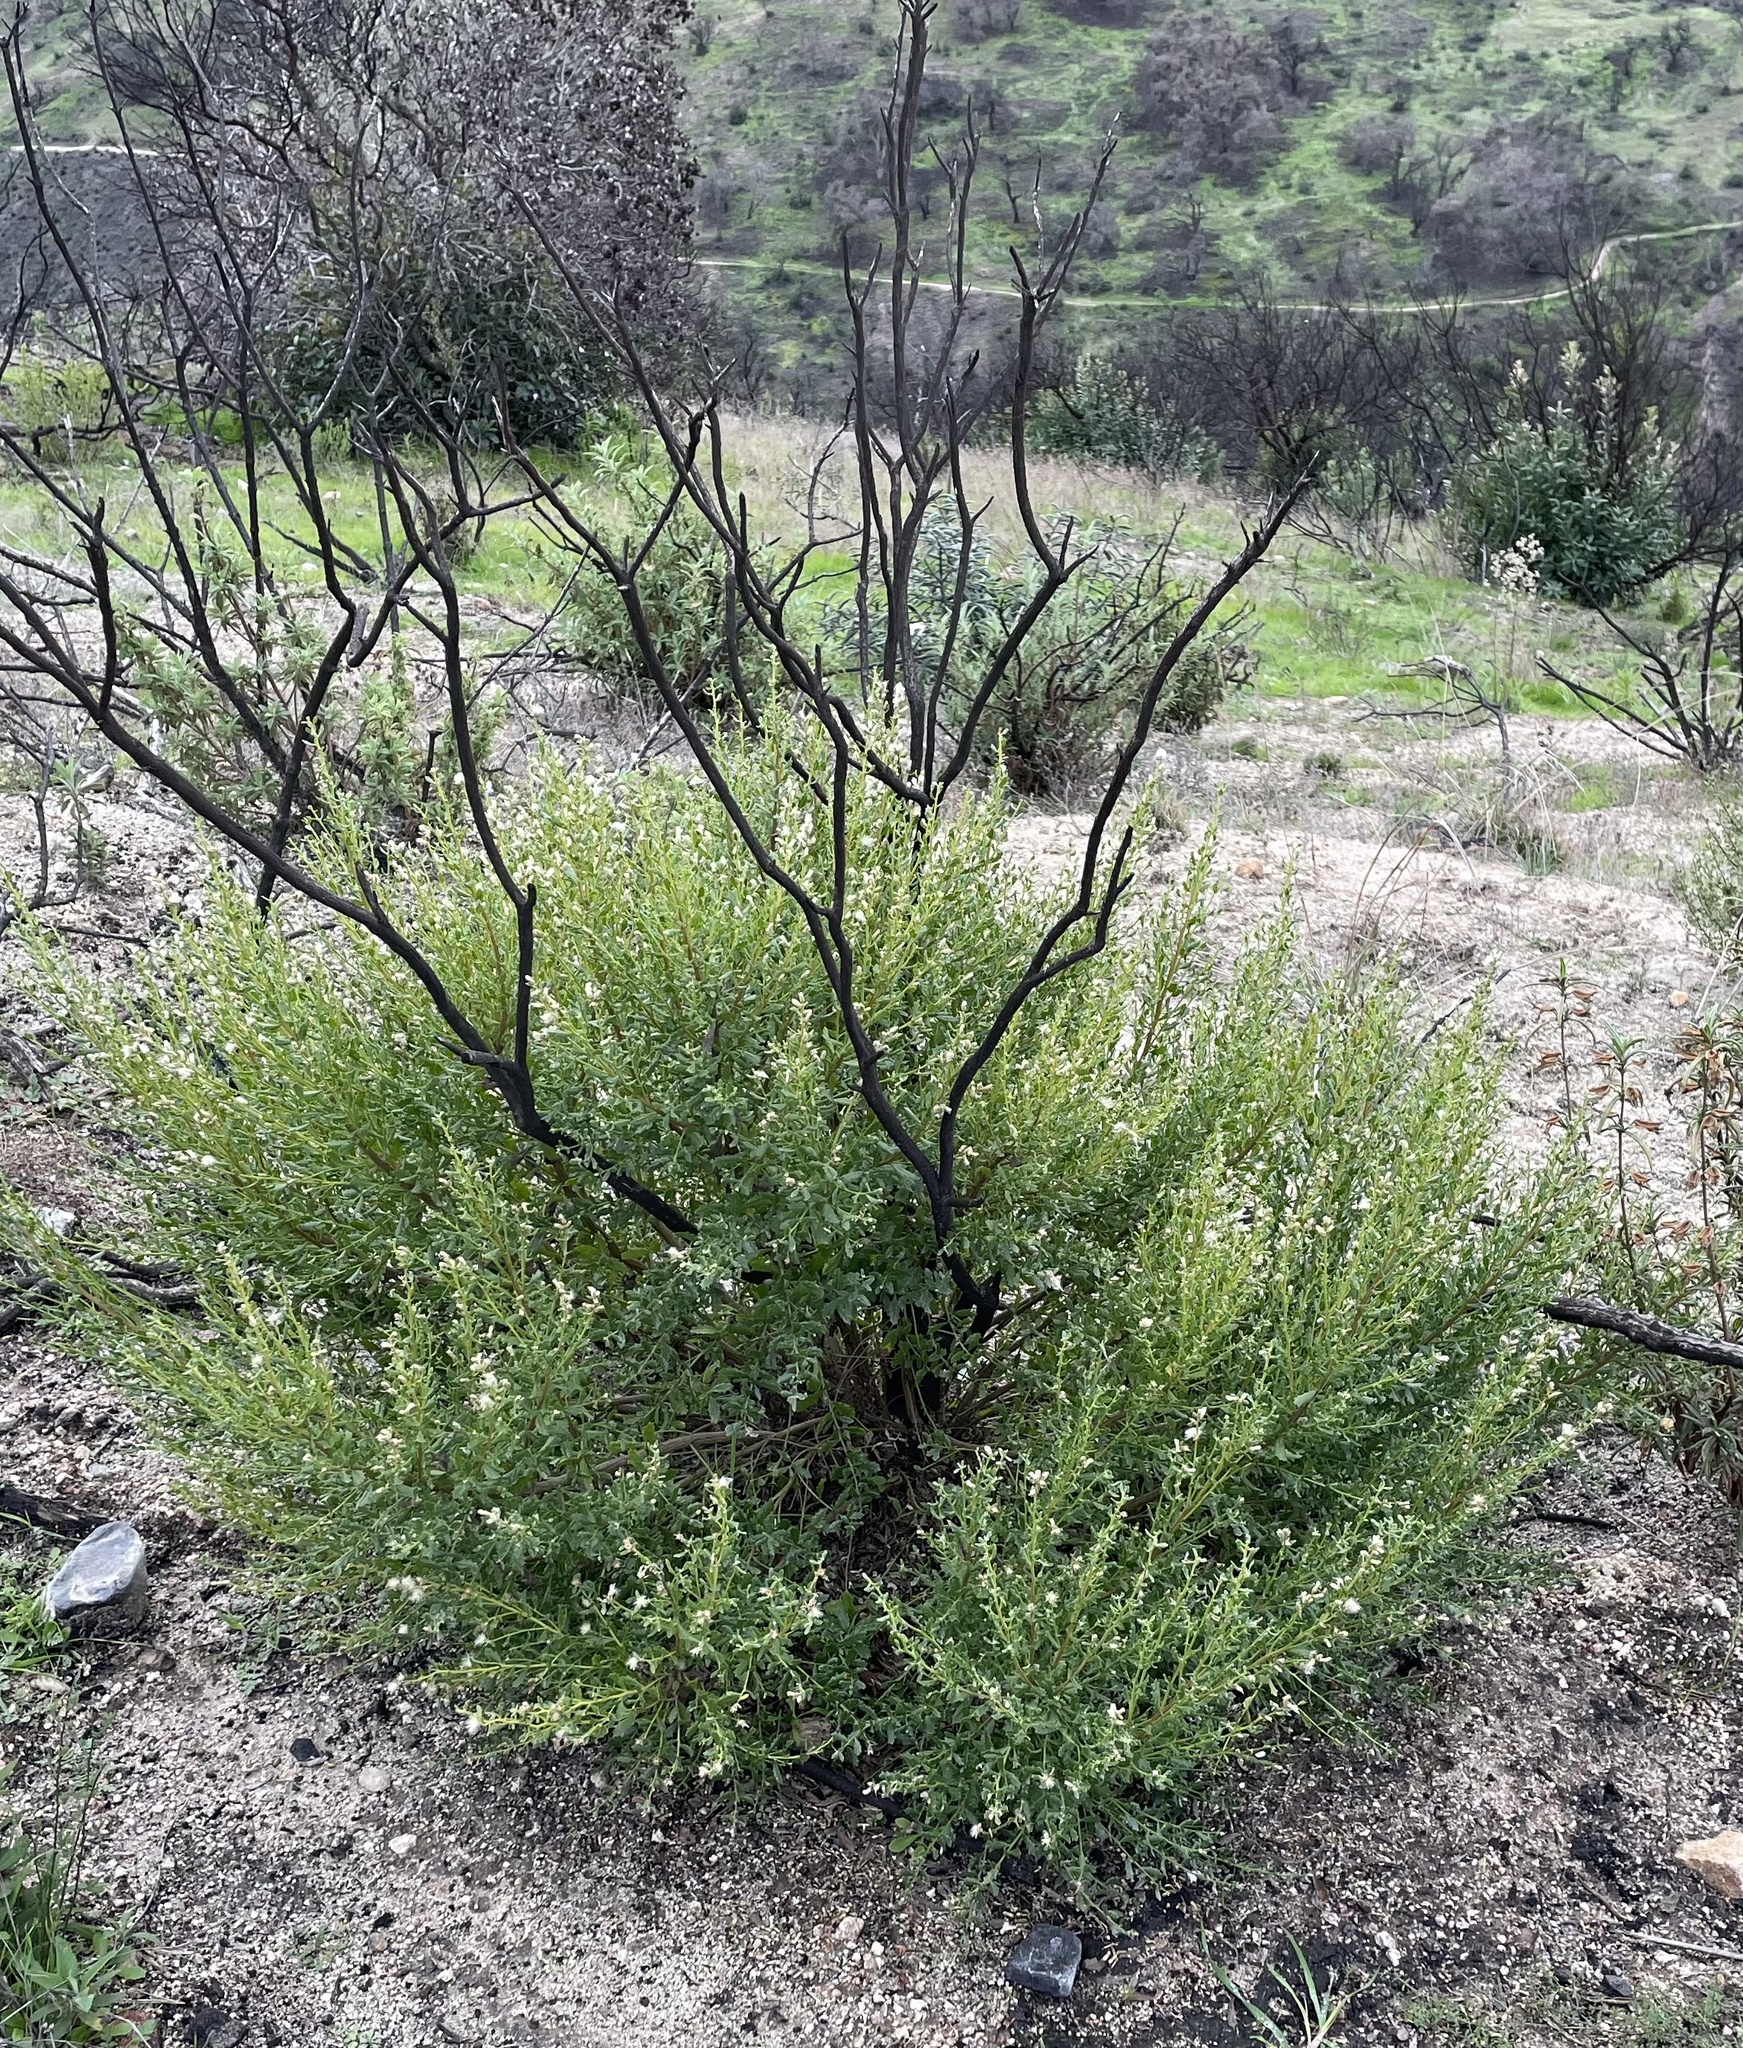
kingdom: Plantae
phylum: Tracheophyta
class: Magnoliopsida
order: Asterales
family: Asteraceae
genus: Baccharis
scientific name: Baccharis pilularis
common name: Coyotebrush
